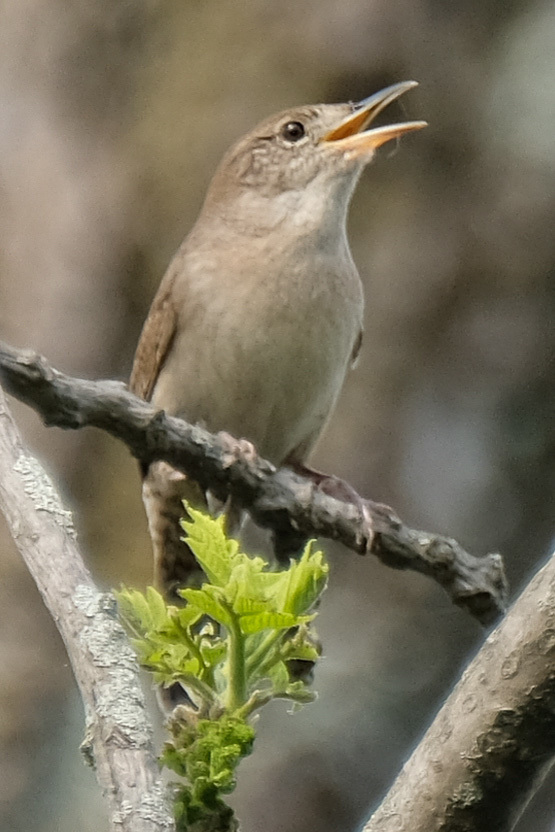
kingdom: Animalia
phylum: Chordata
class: Aves
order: Passeriformes
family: Troglodytidae
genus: Troglodytes
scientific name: Troglodytes aedon
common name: House wren
